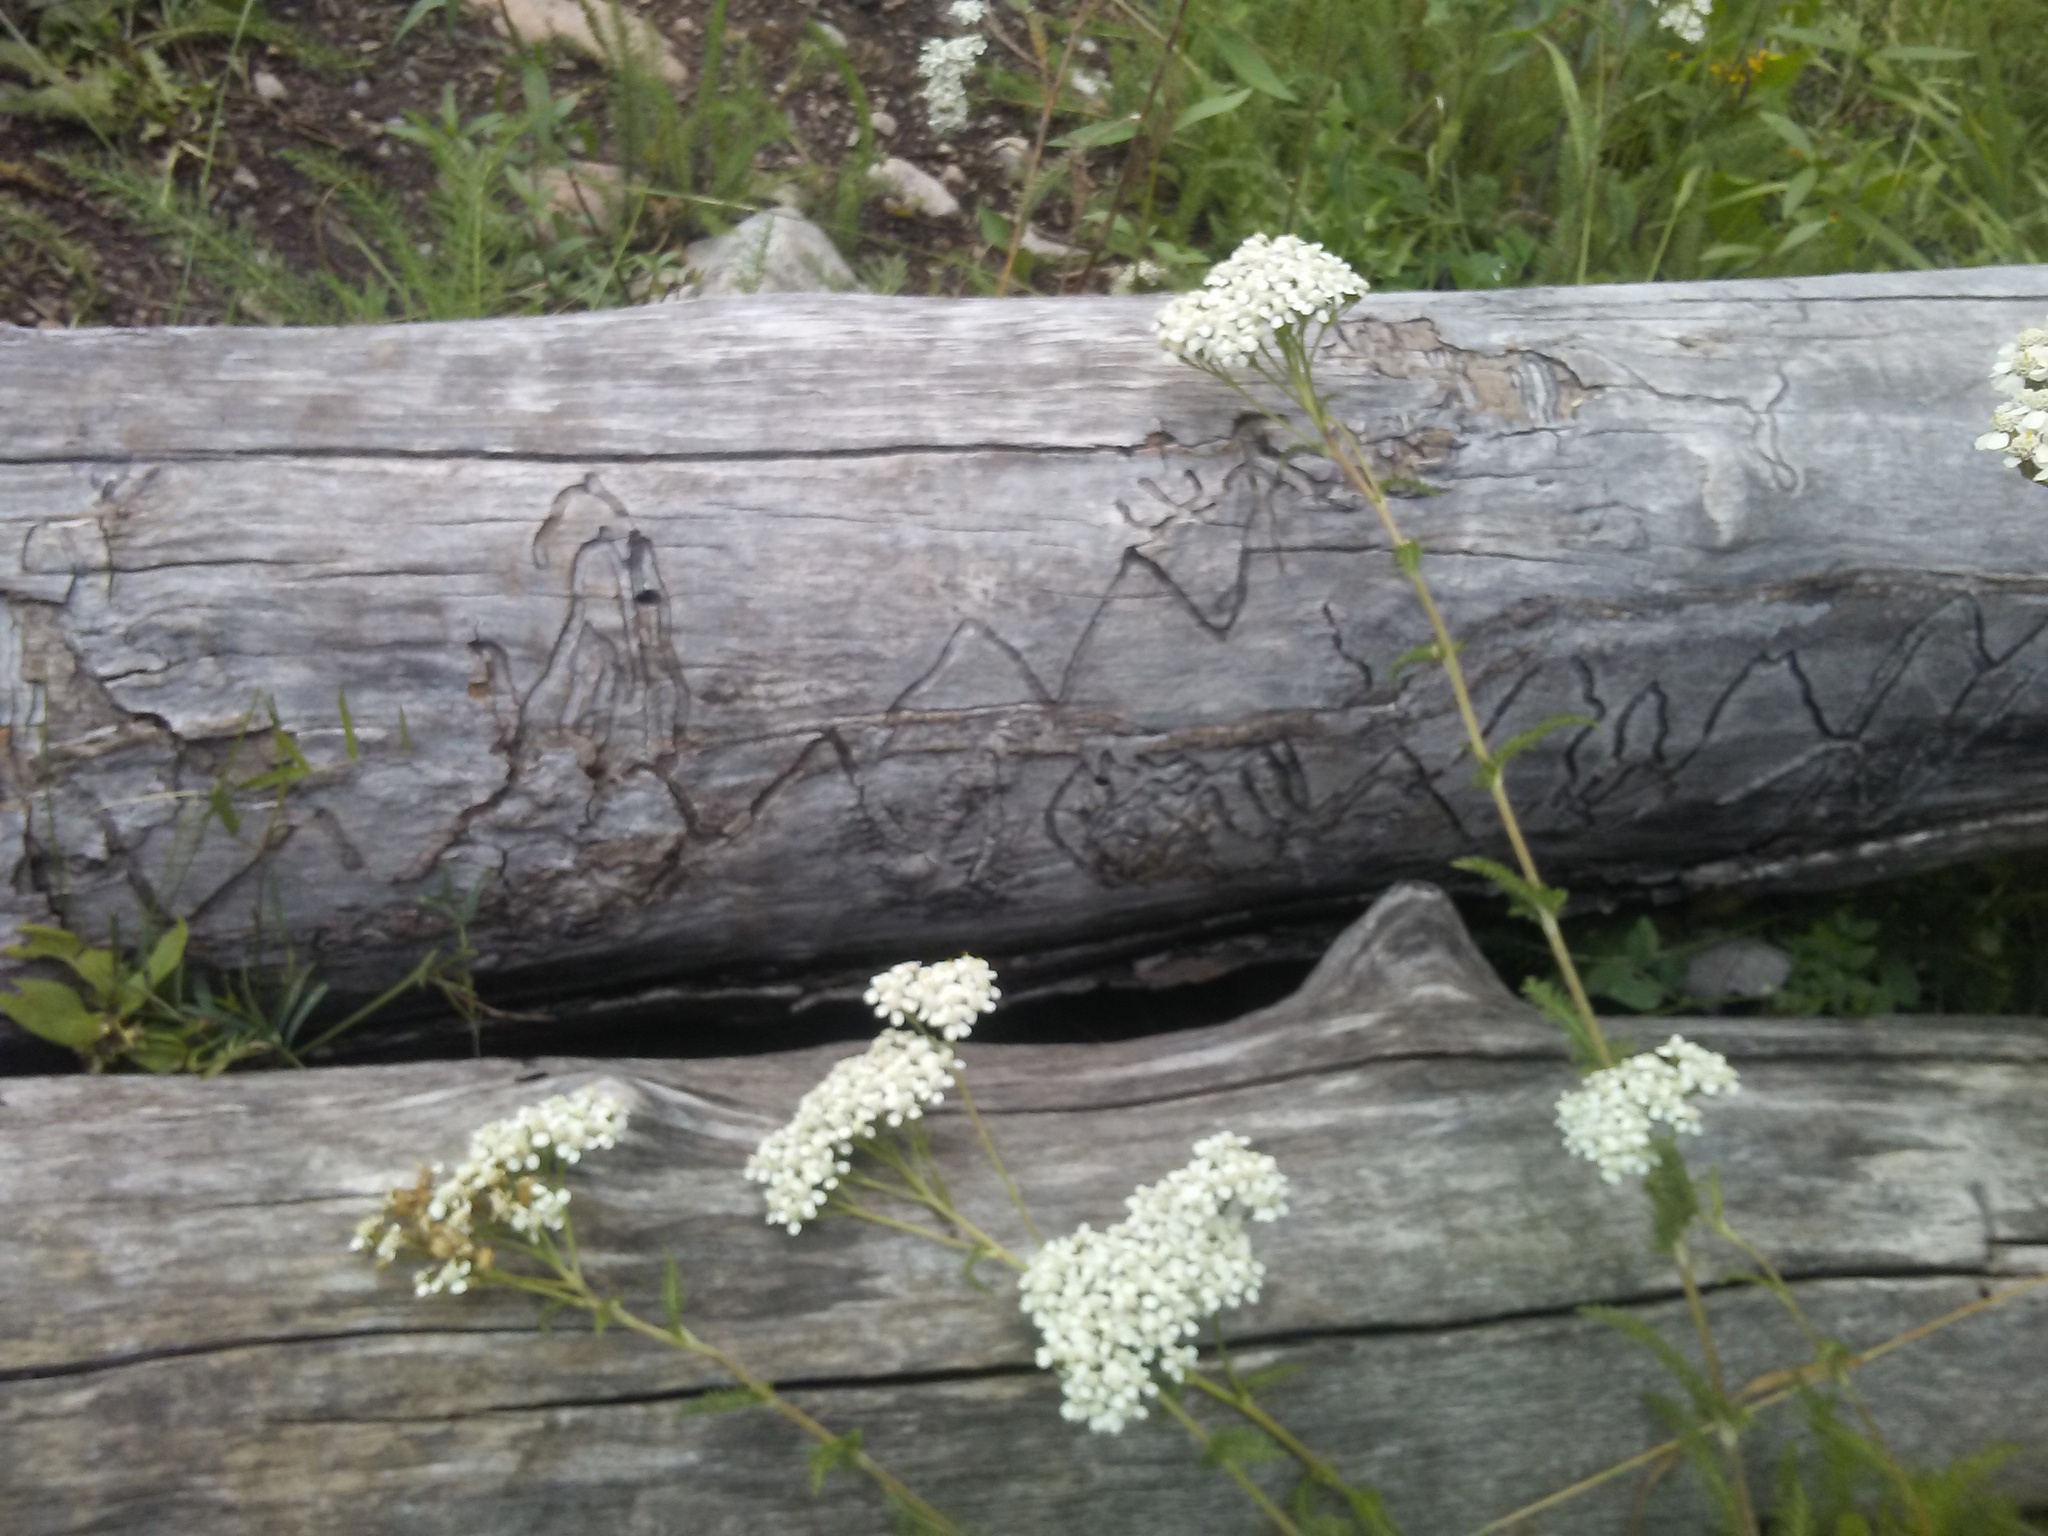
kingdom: Plantae
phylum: Tracheophyta
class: Magnoliopsida
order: Asterales
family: Asteraceae
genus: Achillea
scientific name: Achillea millefolium
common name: Yarrow
